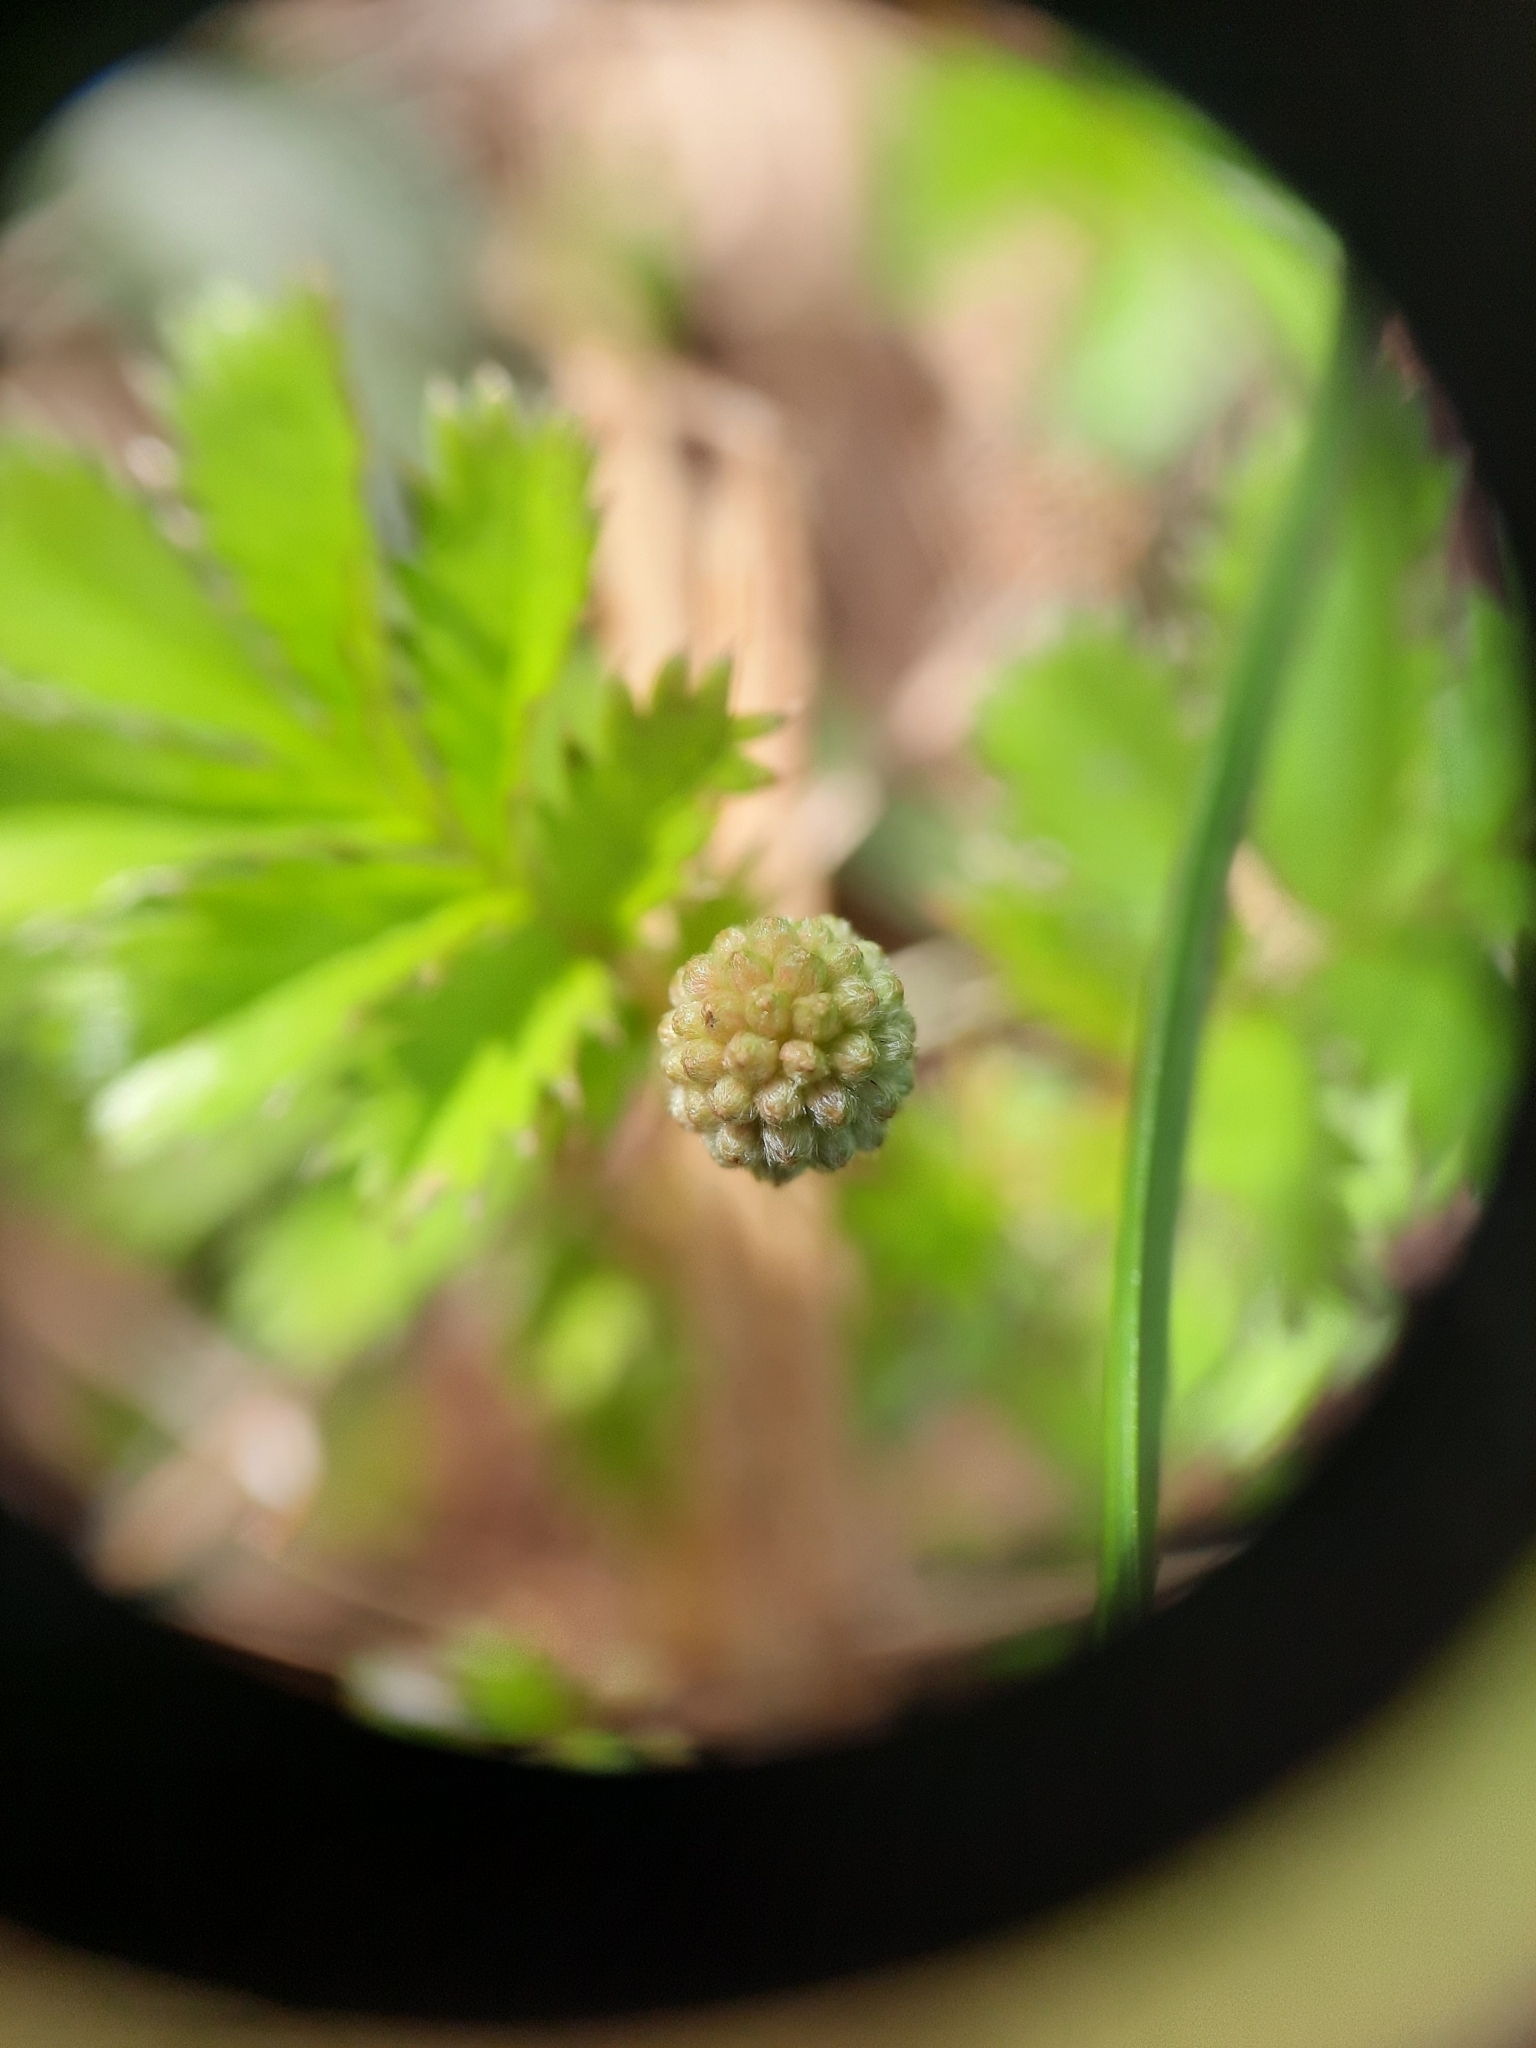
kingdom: Plantae
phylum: Tracheophyta
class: Magnoliopsida
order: Rosales
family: Rosaceae
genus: Acaena
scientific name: Acaena anserinifolia
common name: Bronze pirri-pirri-bur
